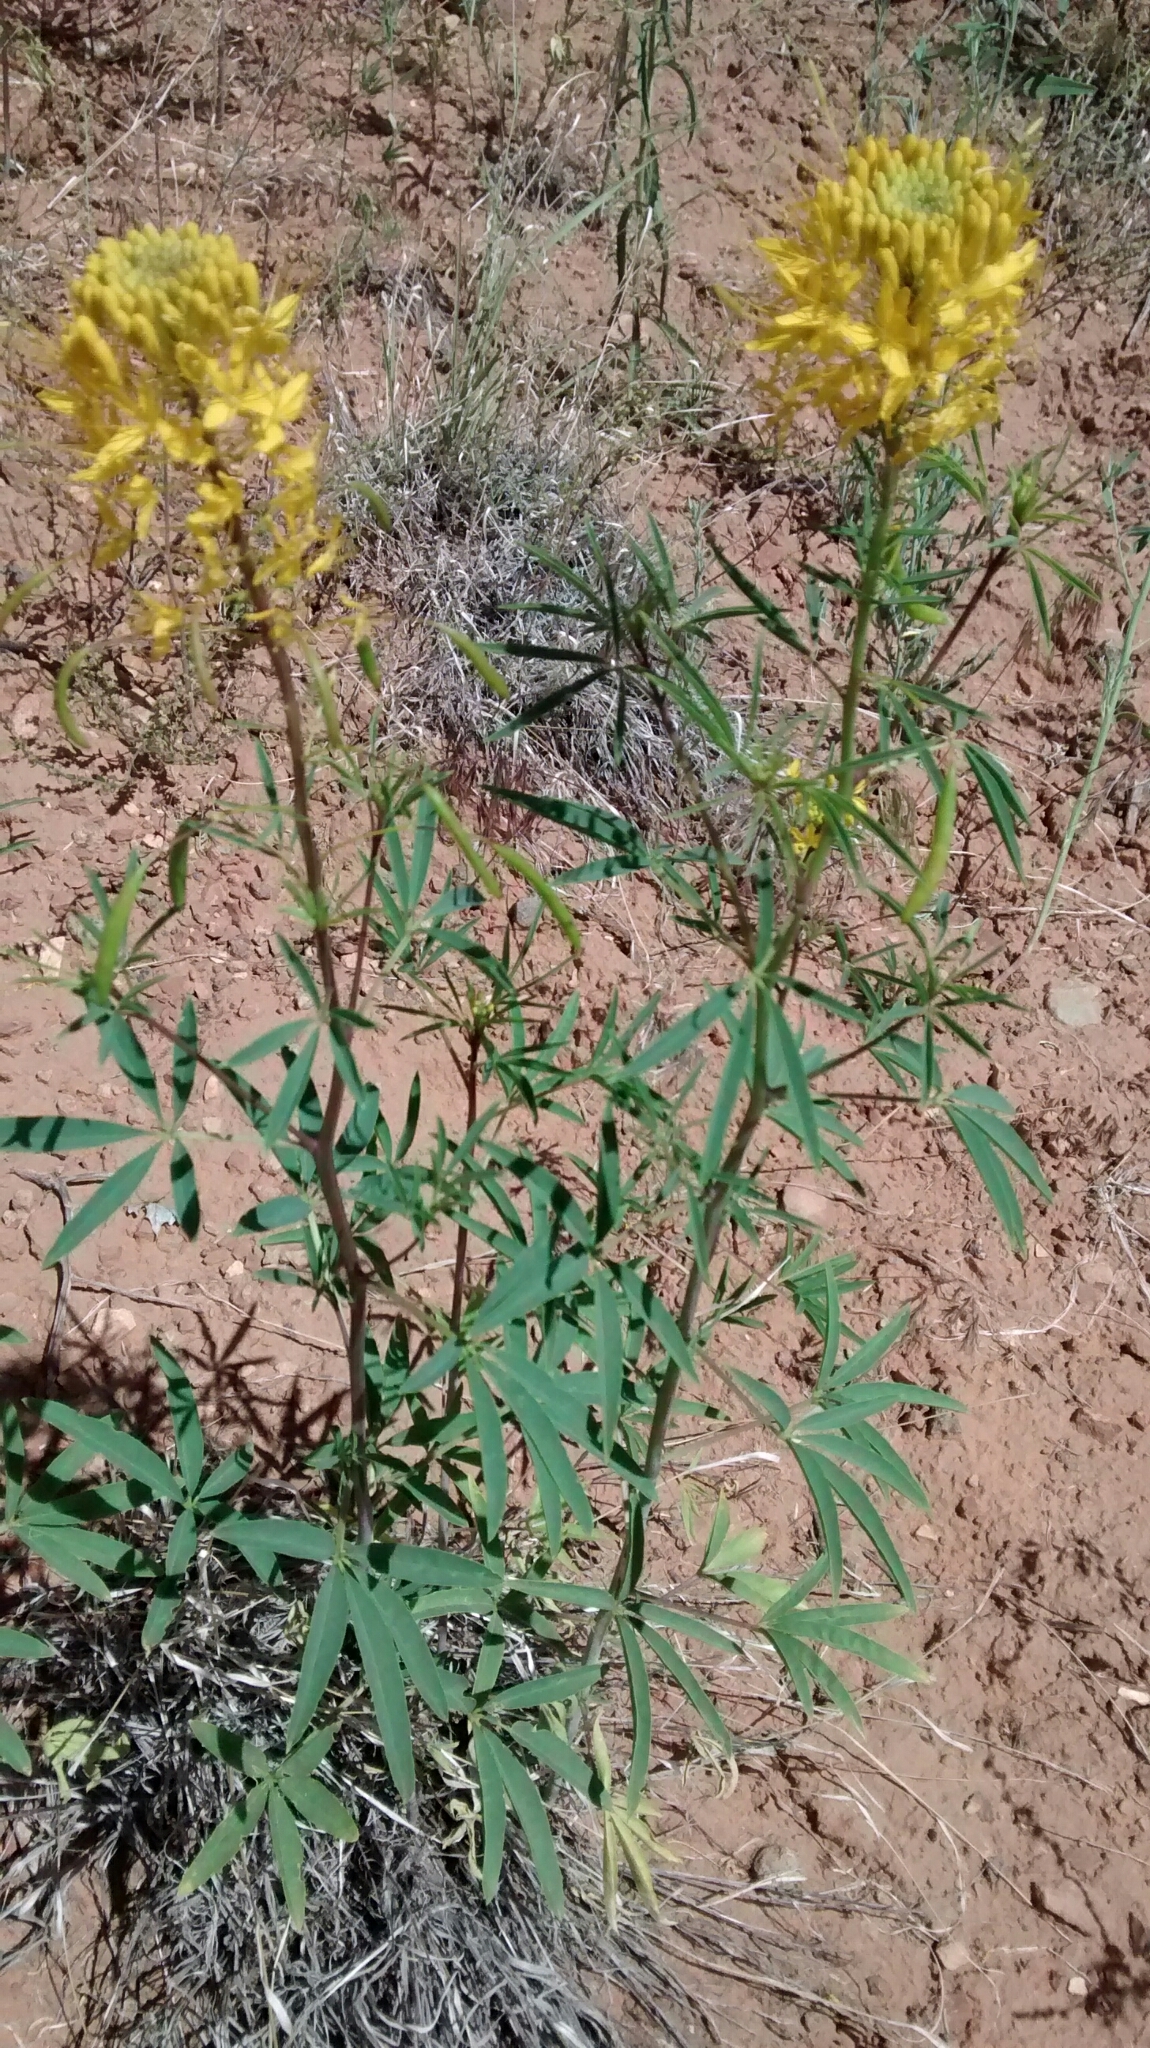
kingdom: Plantae
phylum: Tracheophyta
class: Magnoliopsida
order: Brassicales
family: Cleomaceae
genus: Cleomella
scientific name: Cleomella lutea
